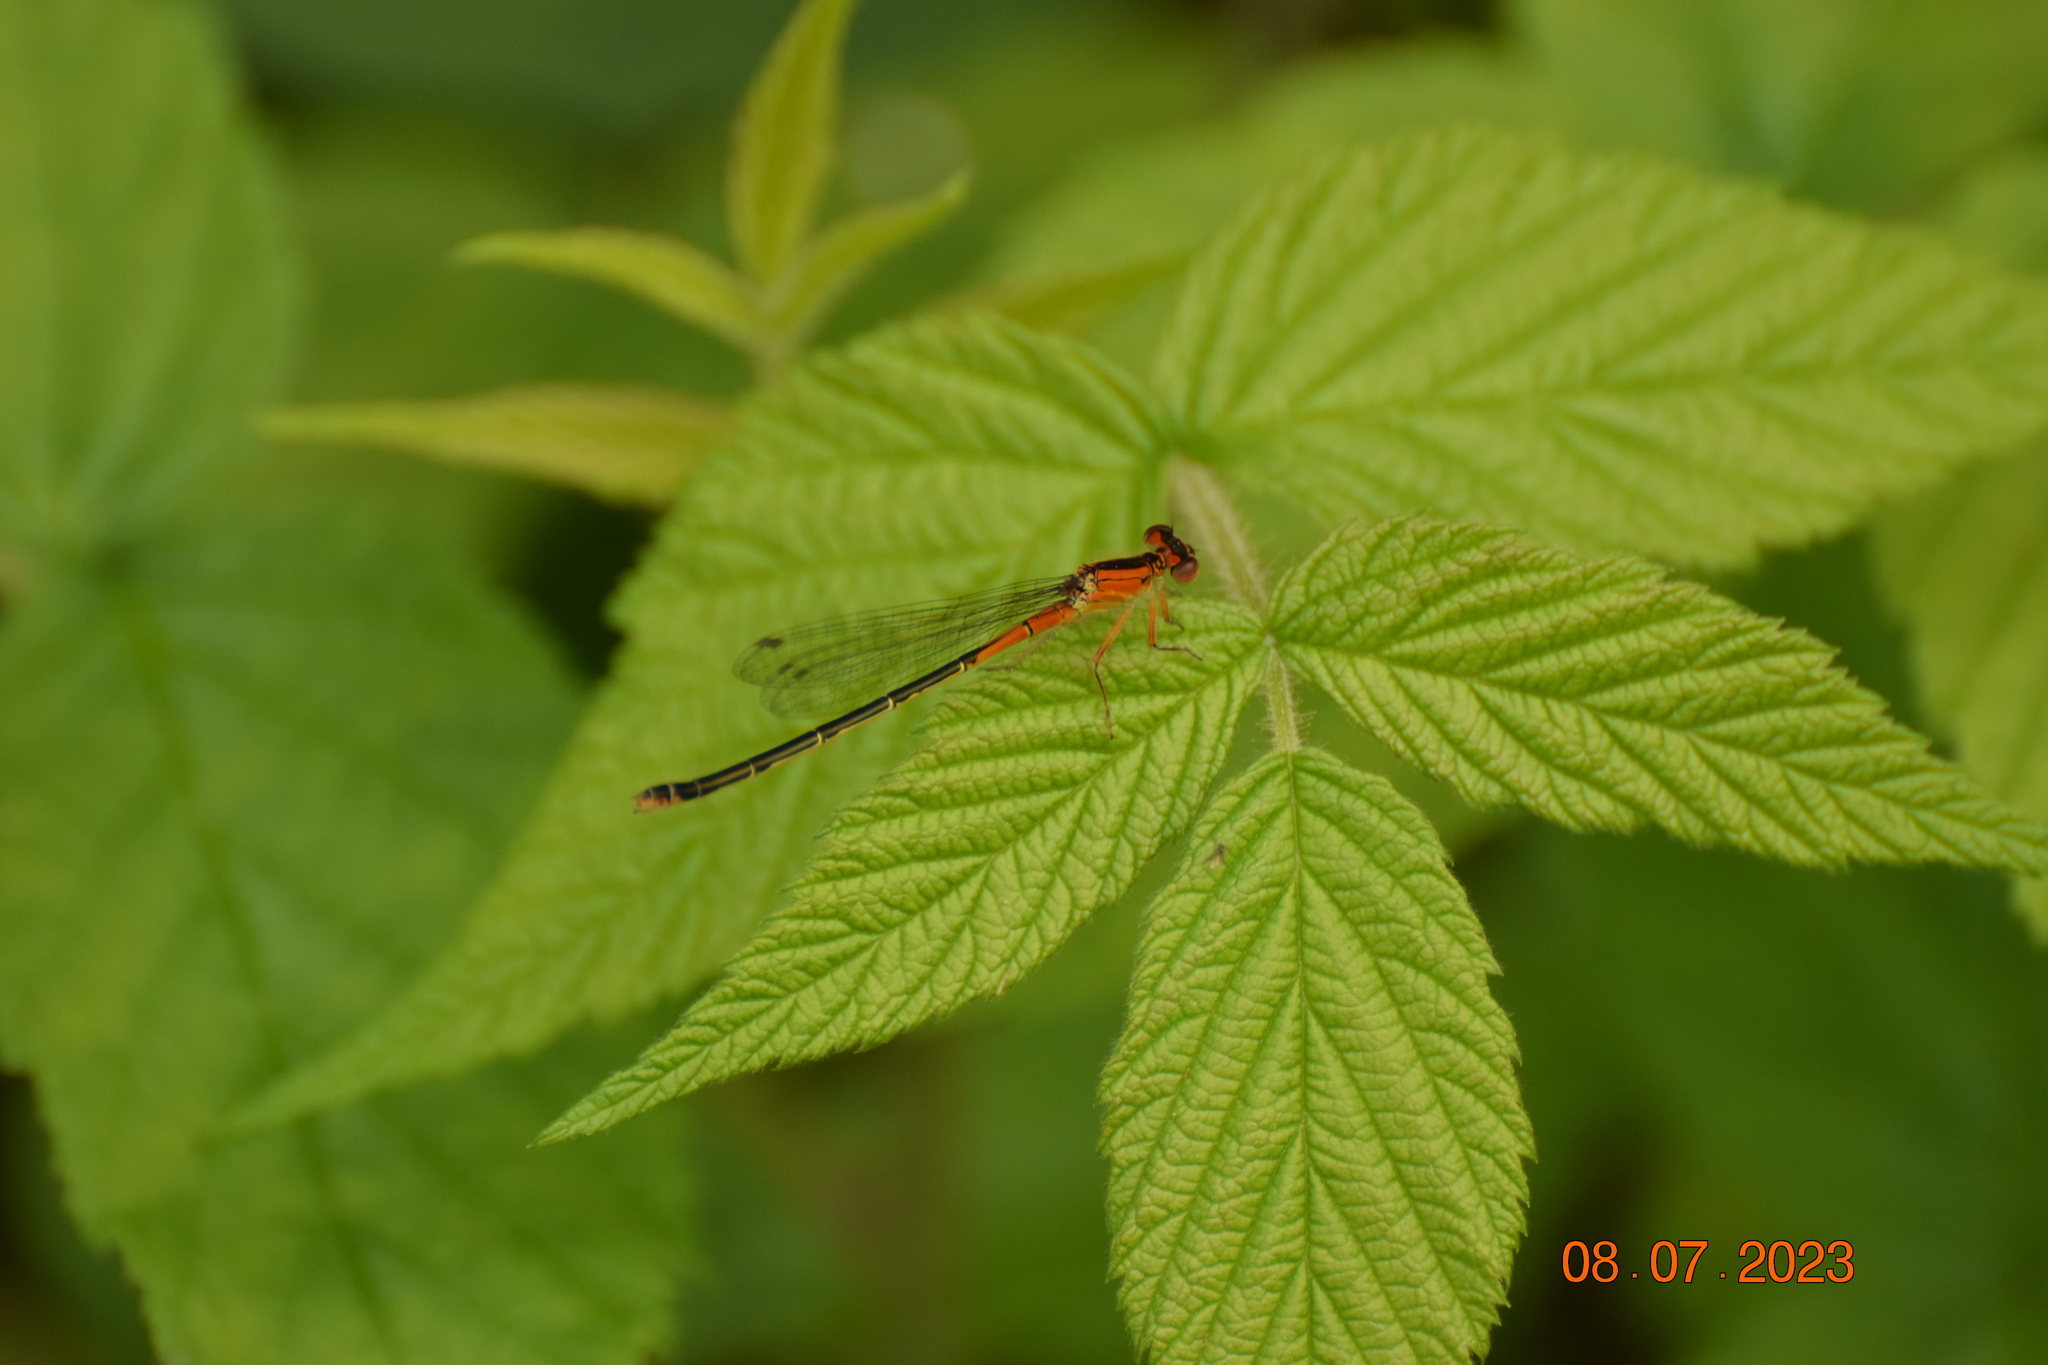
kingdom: Animalia
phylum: Arthropoda
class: Insecta
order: Odonata
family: Coenagrionidae
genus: Ischnura
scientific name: Ischnura verticalis
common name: Eastern forktail
